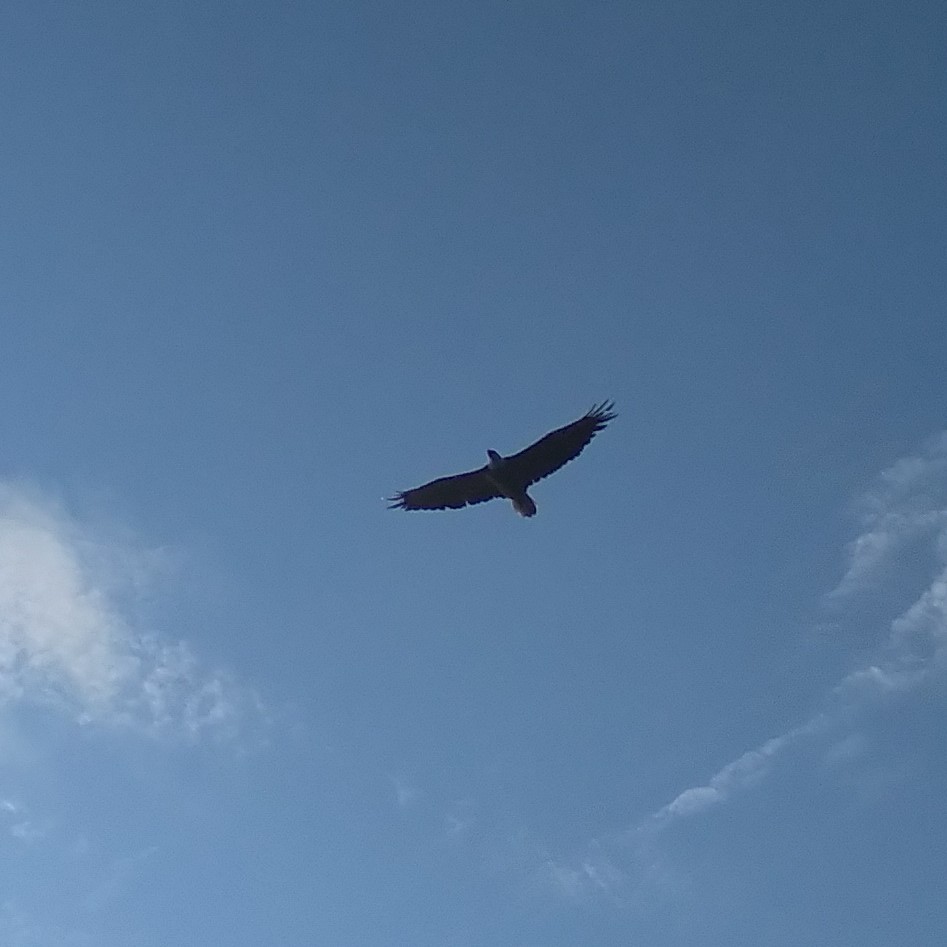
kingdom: Animalia
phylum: Chordata
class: Aves
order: Accipitriformes
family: Accipitridae
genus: Haliaeetus
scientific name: Haliaeetus leucocephalus
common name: Bald eagle
